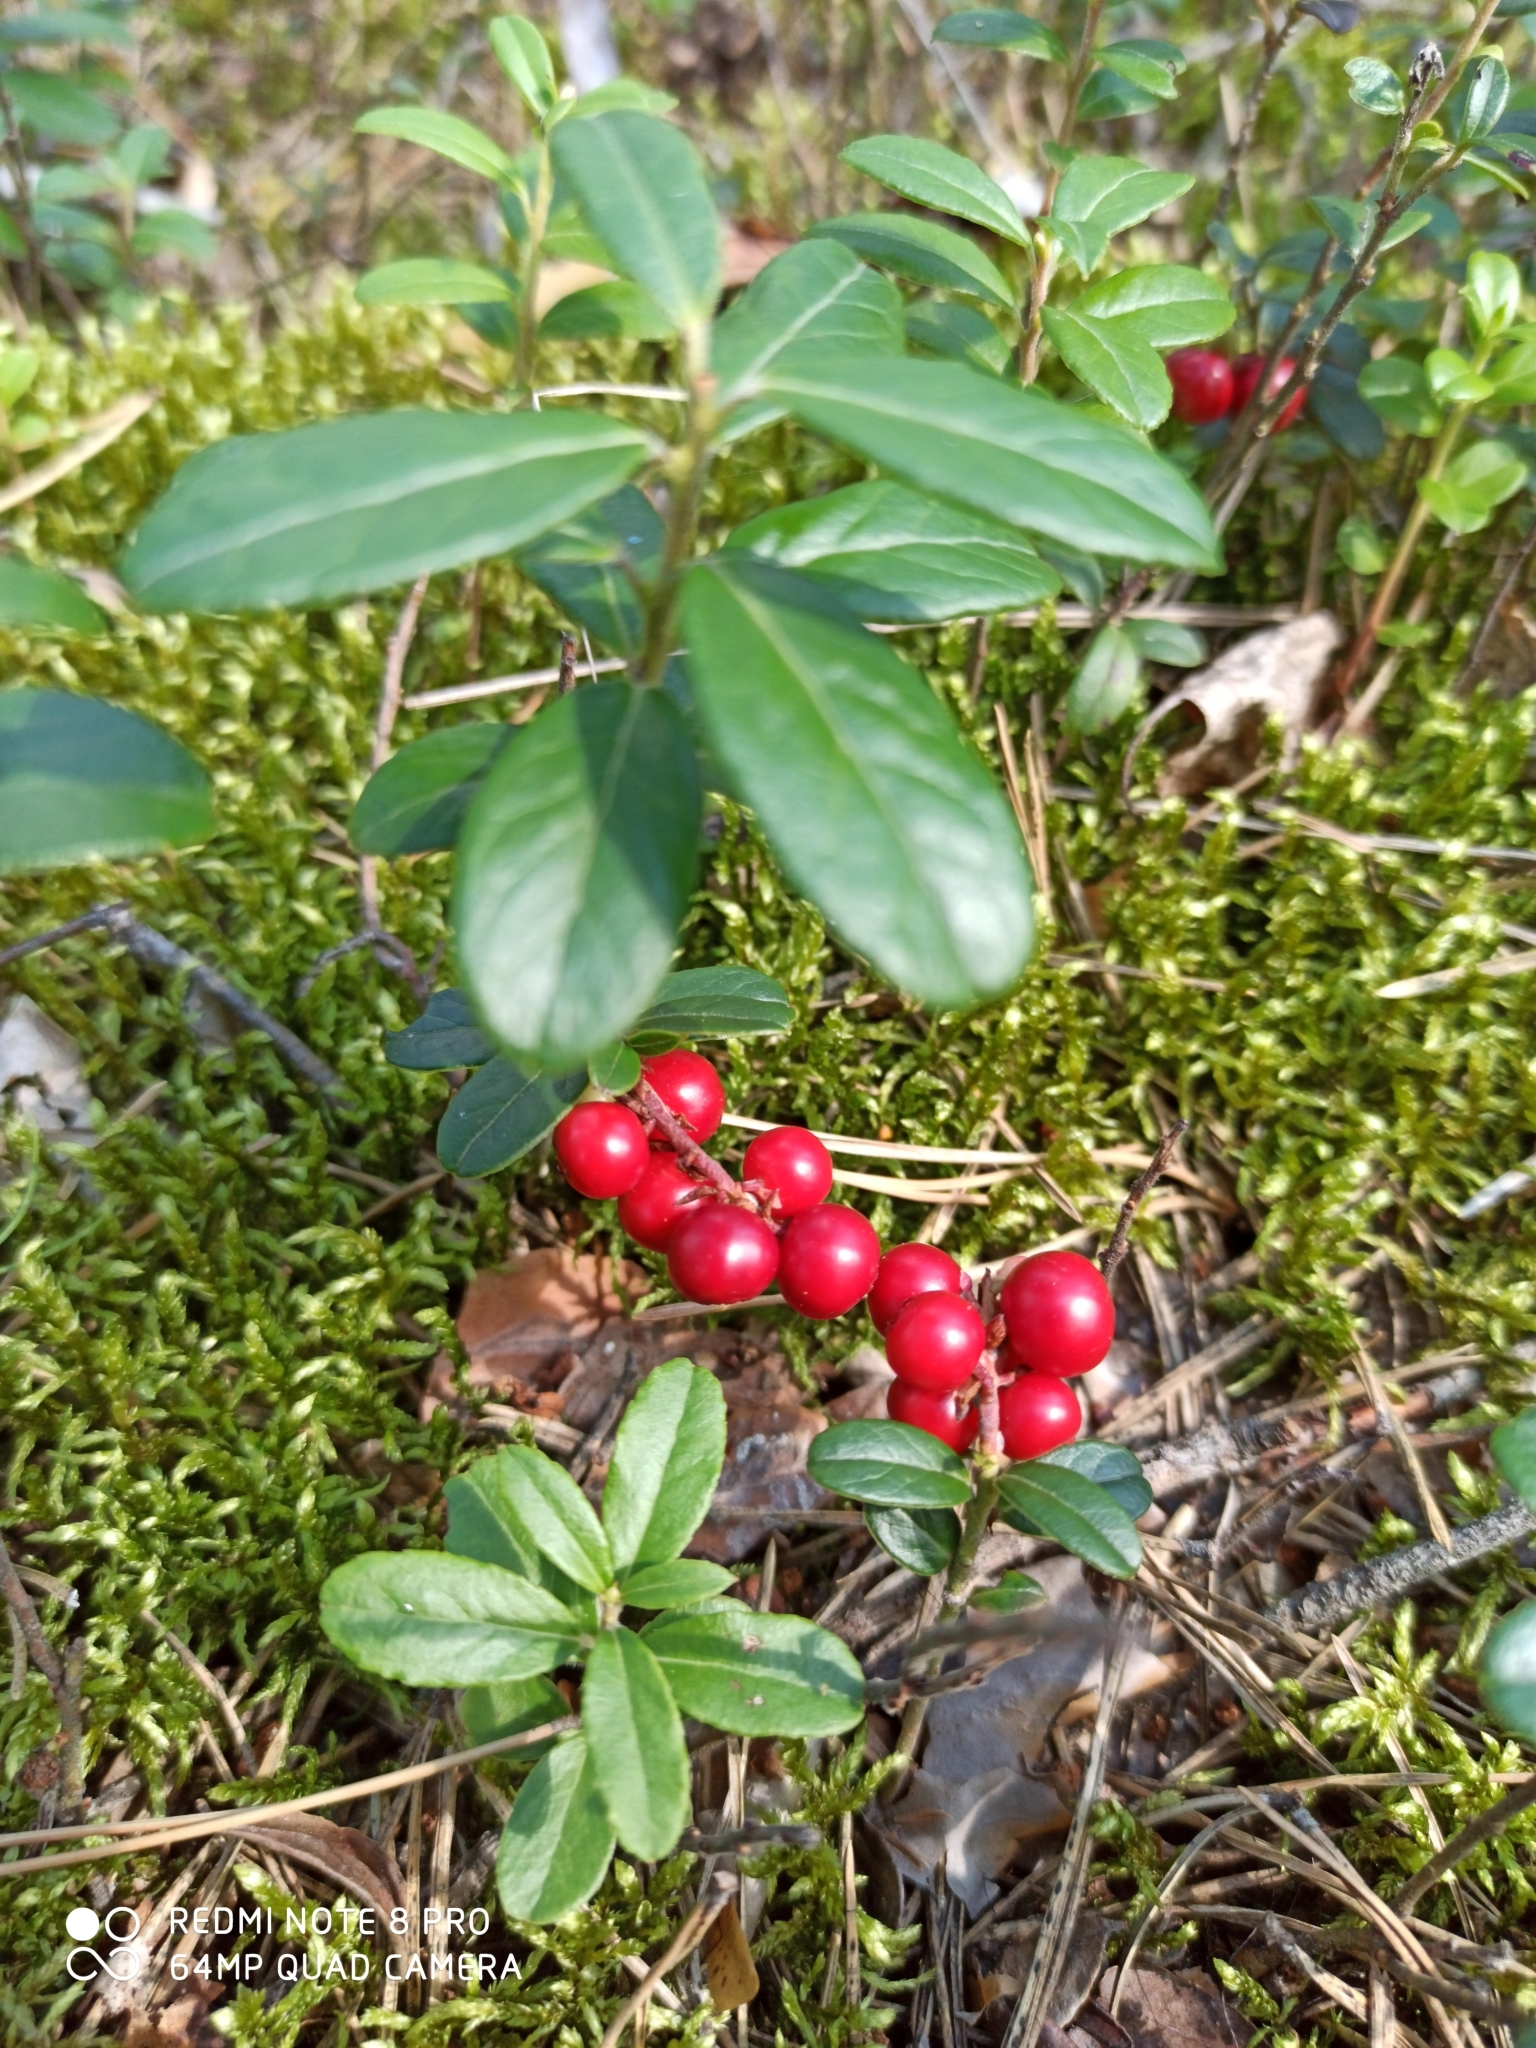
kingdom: Plantae
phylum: Tracheophyta
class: Magnoliopsida
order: Ericales
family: Ericaceae
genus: Vaccinium
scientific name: Vaccinium vitis-idaea
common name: Cowberry
